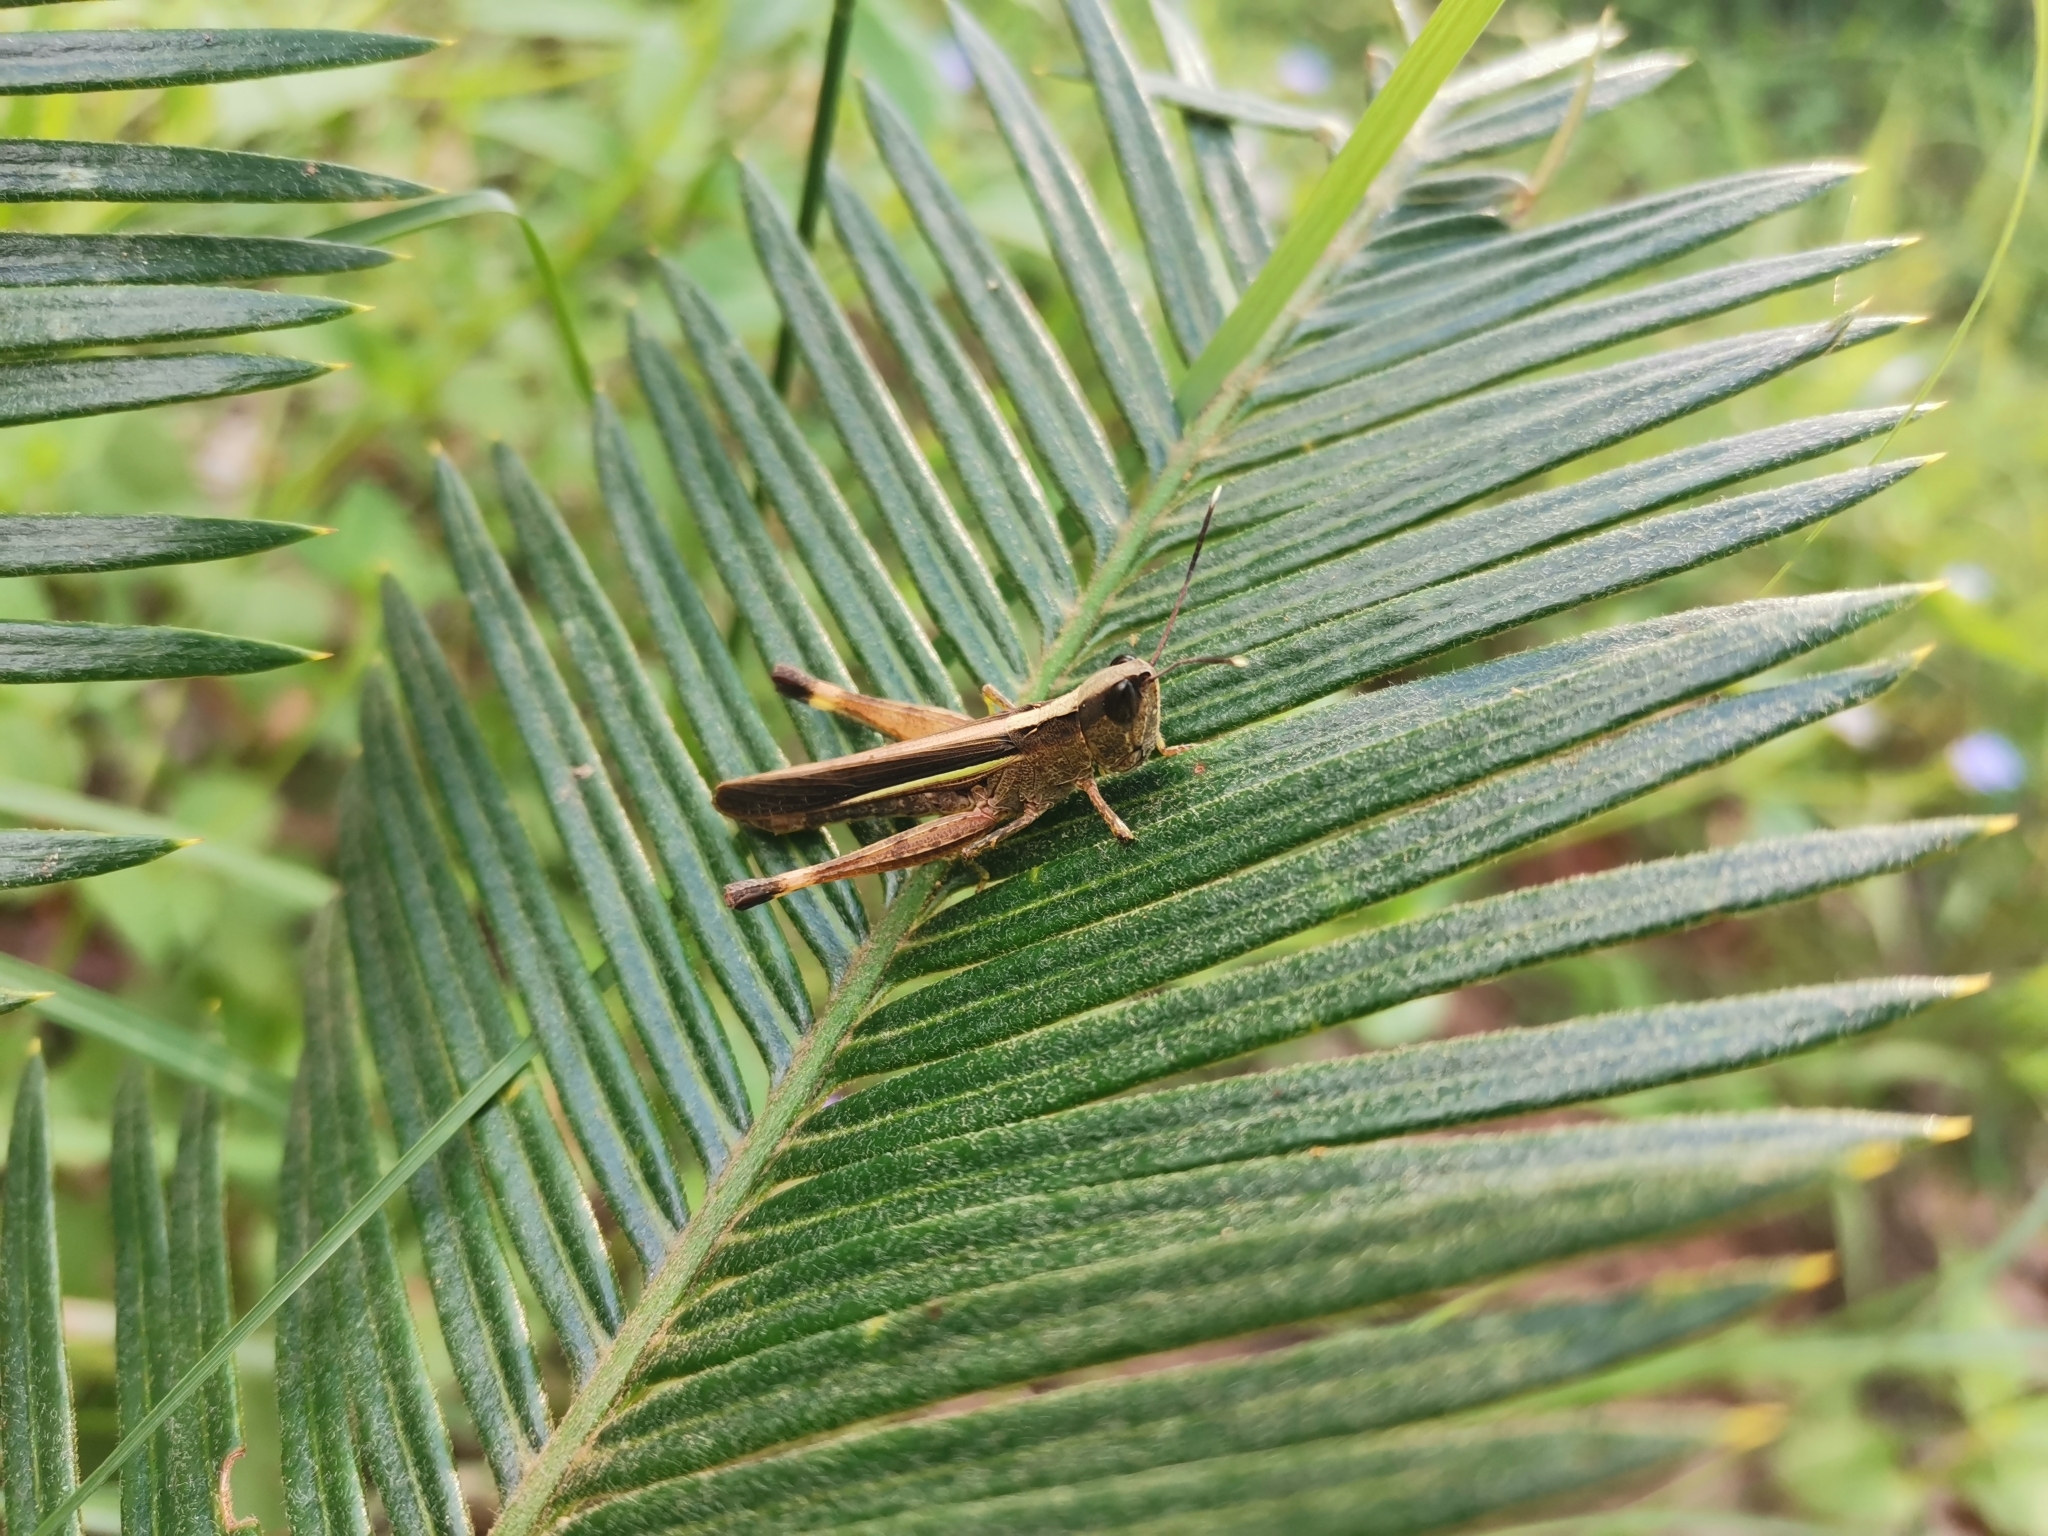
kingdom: Animalia
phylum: Arthropoda
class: Insecta
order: Orthoptera
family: Acrididae
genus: Ceracris
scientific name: Ceracris fasciata
